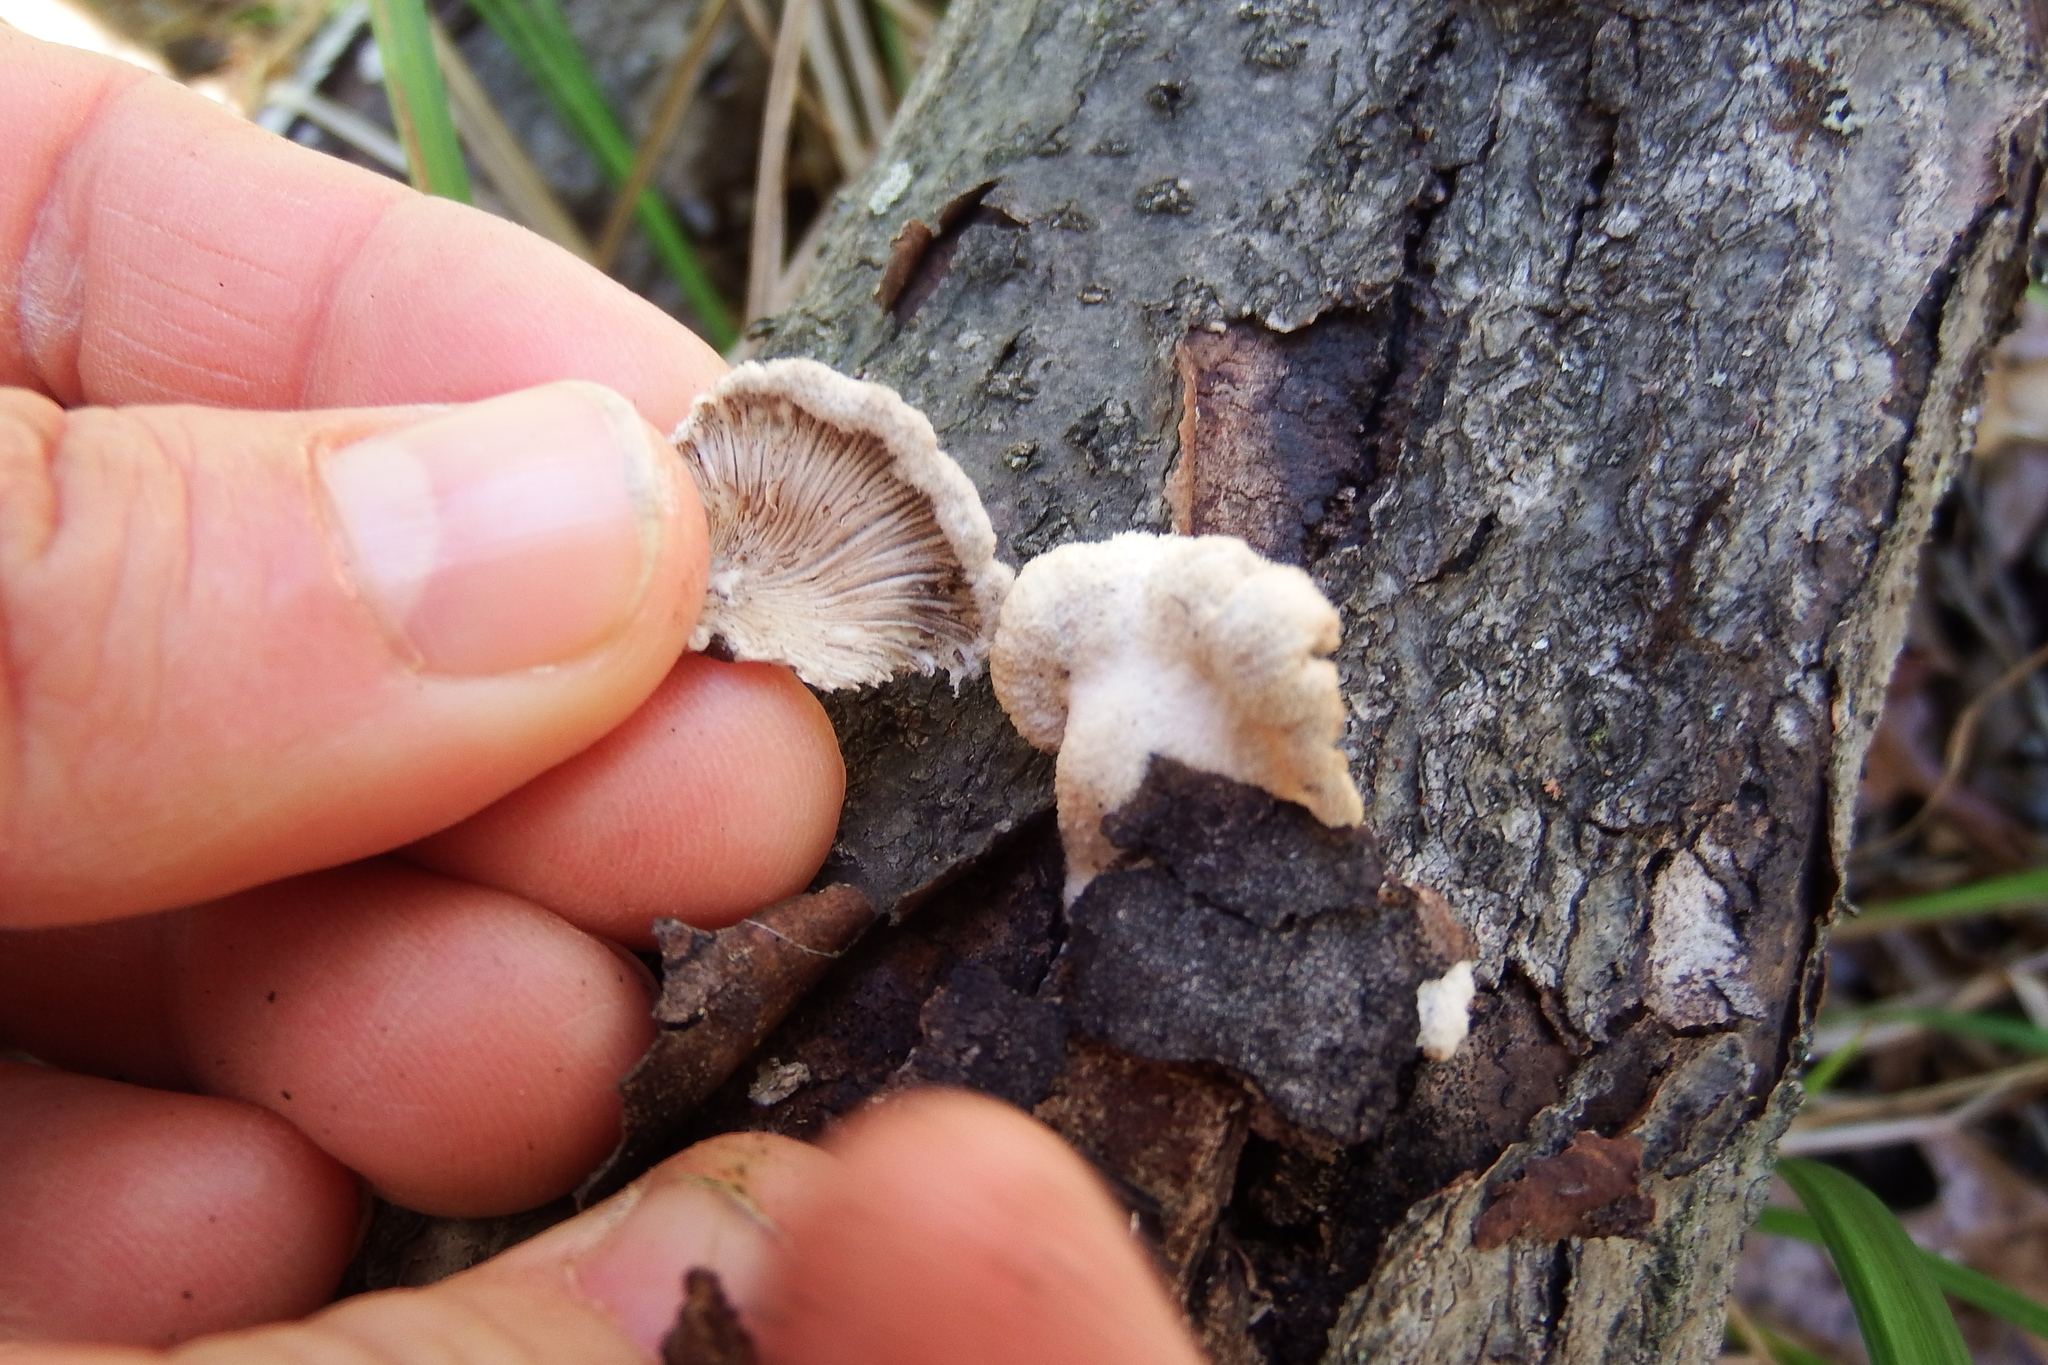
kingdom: Fungi
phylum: Basidiomycota
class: Agaricomycetes
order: Agaricales
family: Schizophyllaceae
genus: Schizophyllum
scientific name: Schizophyllum commune
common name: Common porecrust
